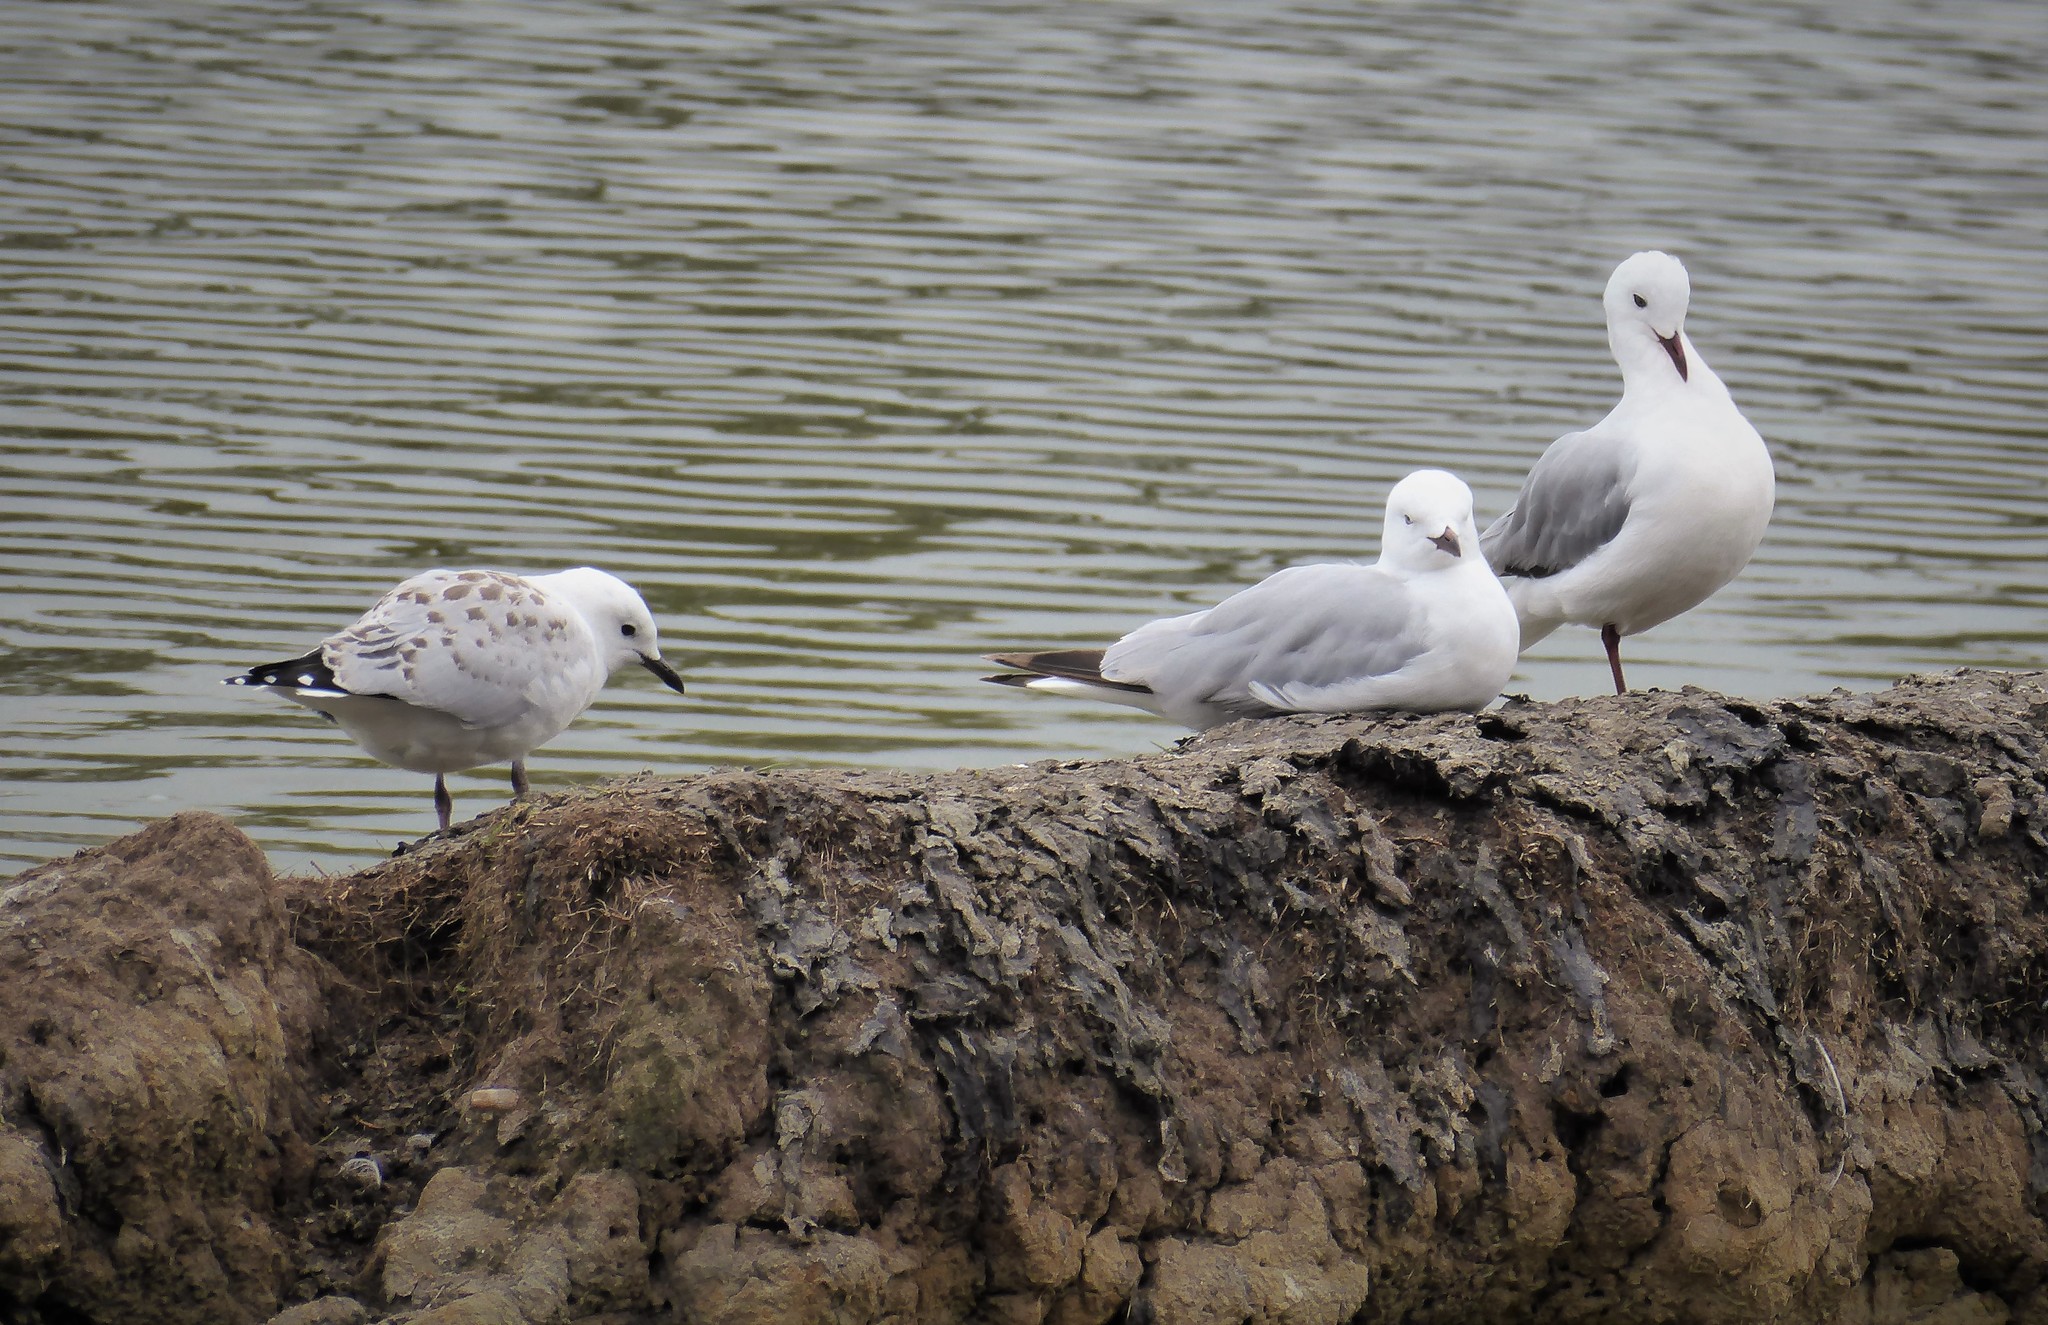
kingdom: Animalia
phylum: Chordata
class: Aves
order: Charadriiformes
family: Laridae
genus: Chroicocephalus
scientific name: Chroicocephalus novaehollandiae
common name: Silver gull
